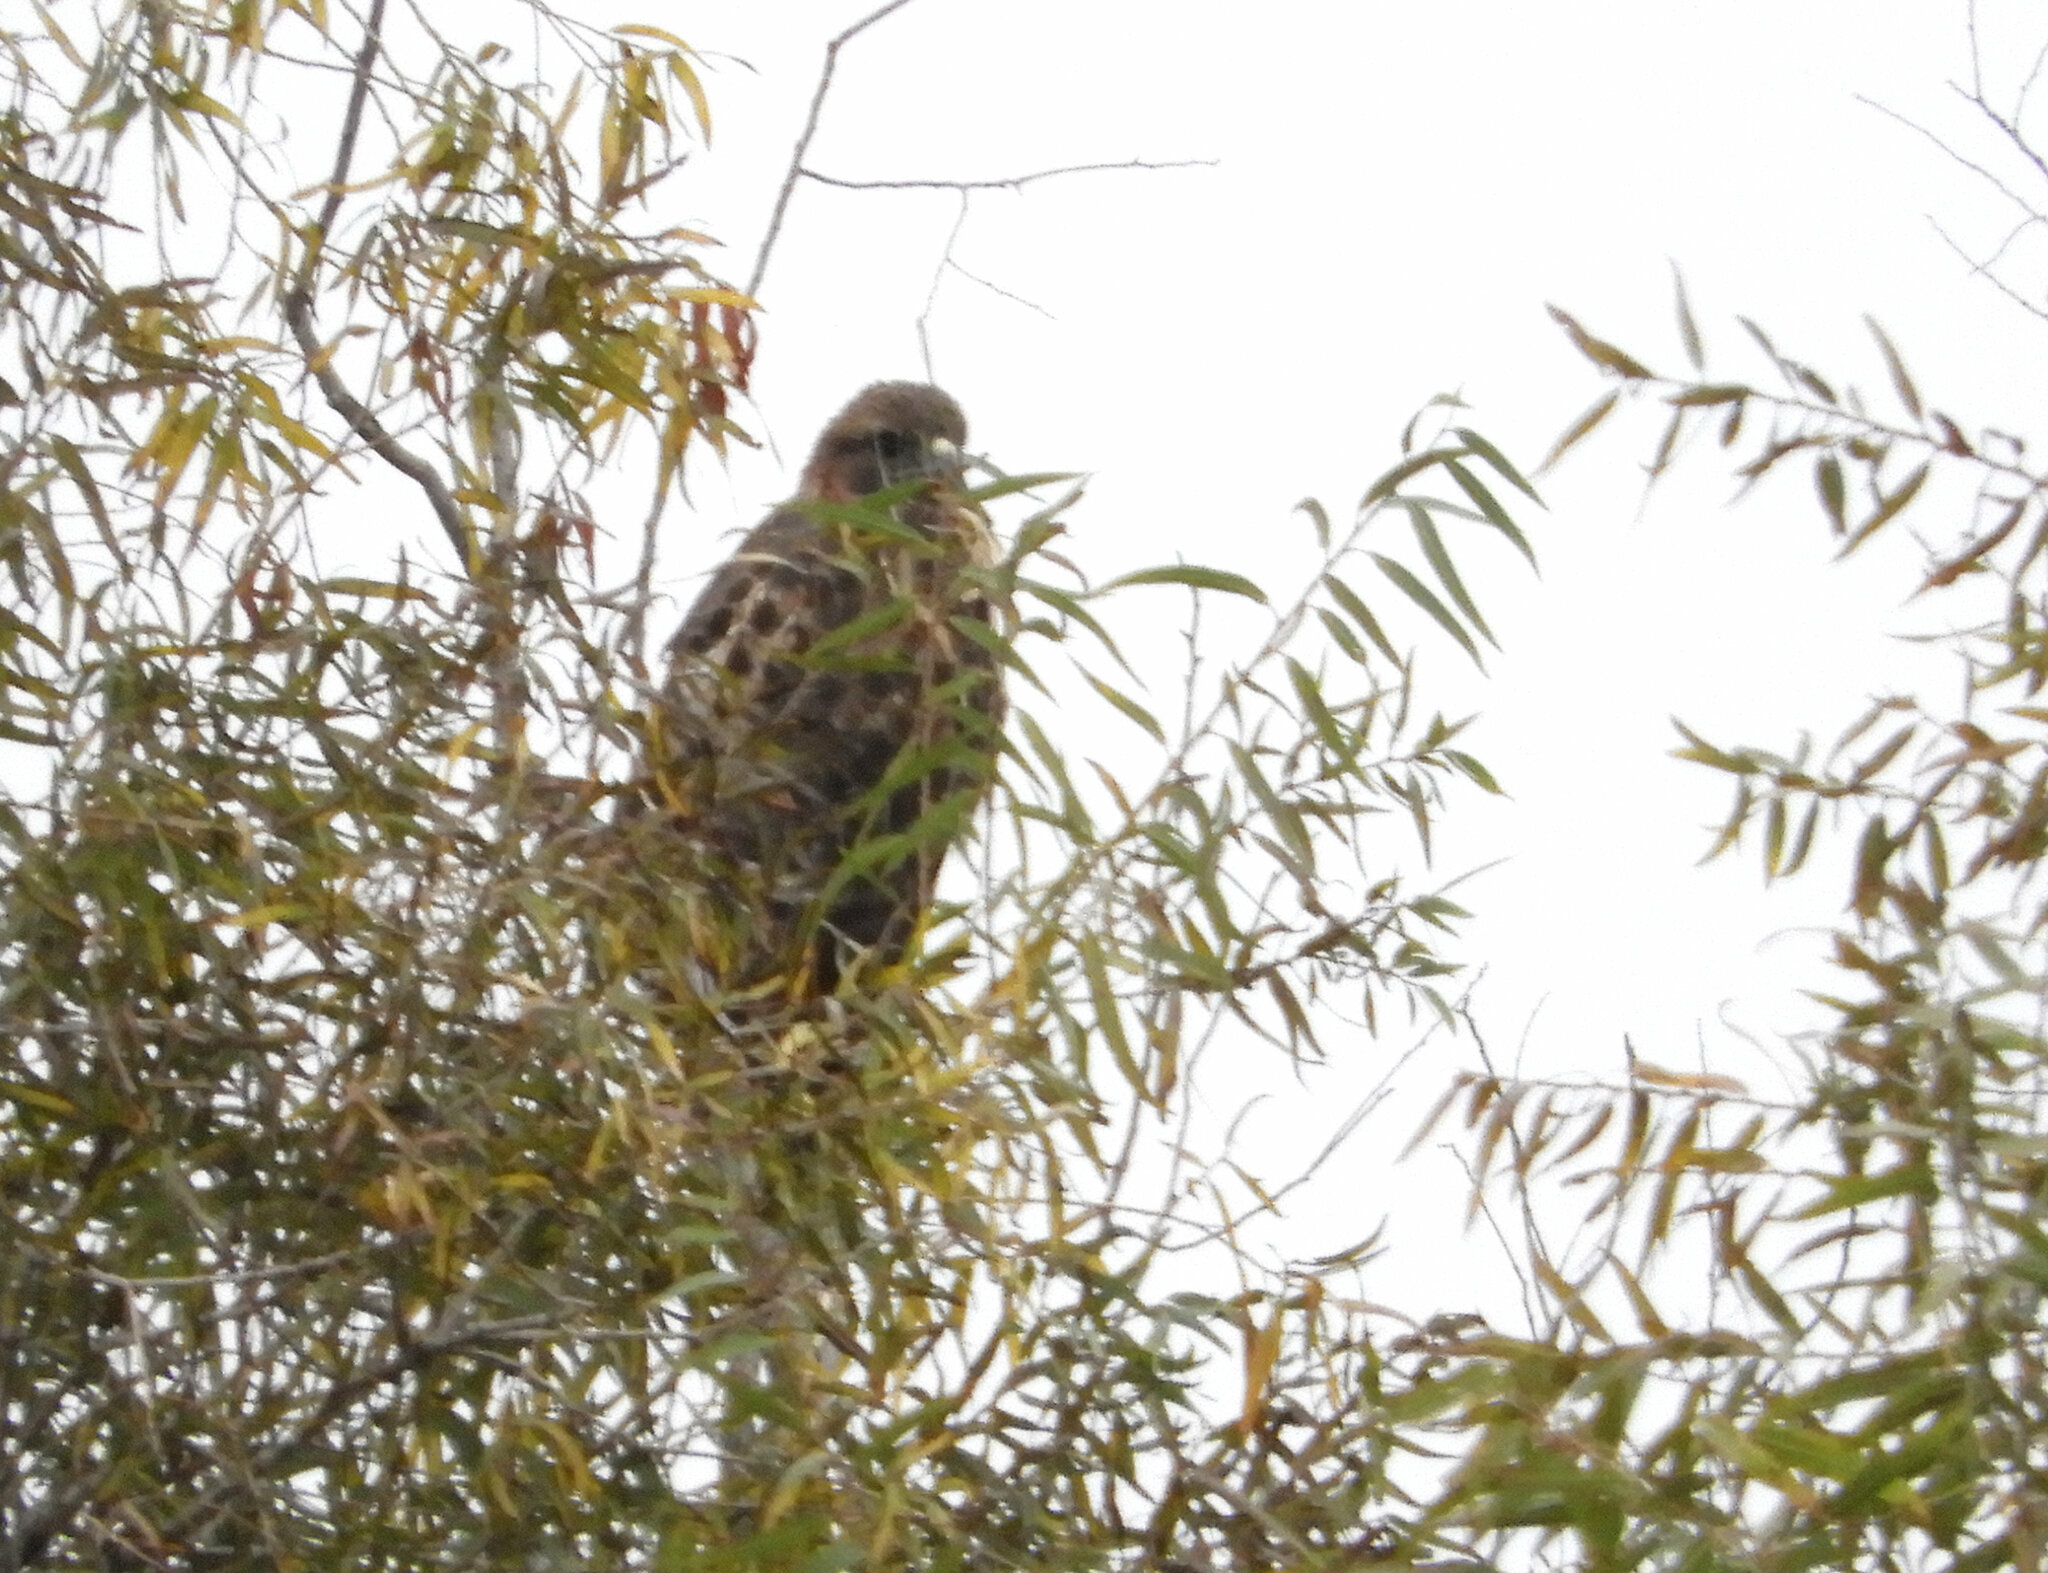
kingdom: Animalia
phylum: Chordata
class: Aves
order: Accipitriformes
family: Accipitridae
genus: Buteo
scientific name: Buteo jamaicensis
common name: Red-tailed hawk
